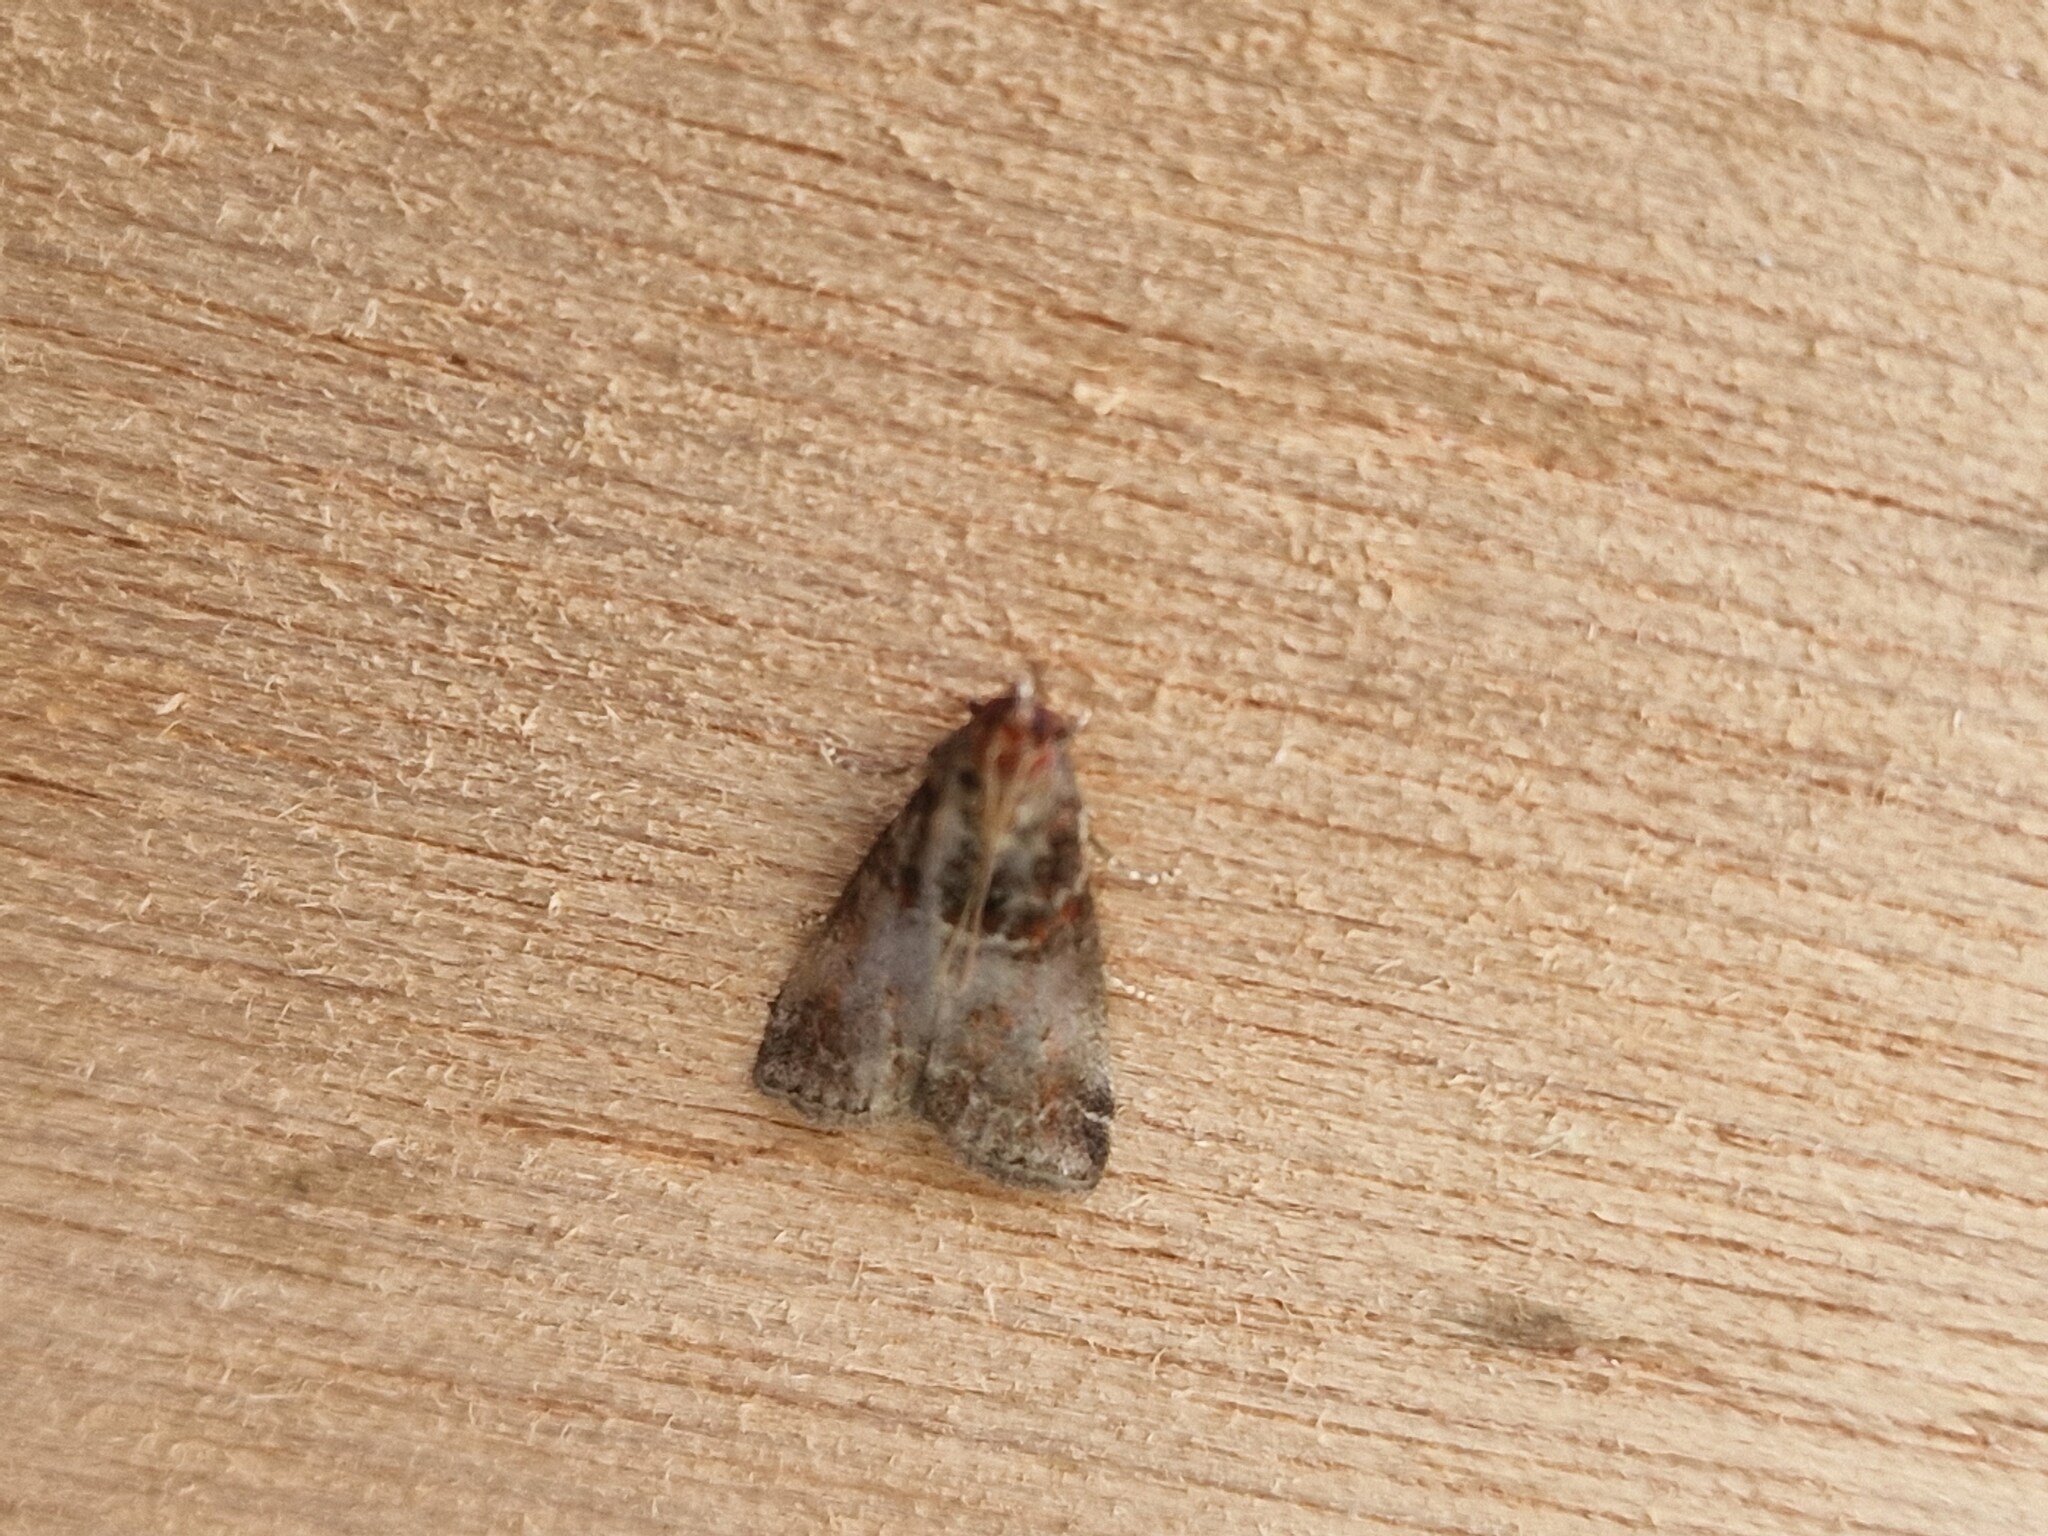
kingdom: Animalia
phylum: Arthropoda
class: Insecta
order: Lepidoptera
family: Pyralidae
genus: Acrobasis
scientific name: Acrobasis advenella
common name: Grey knot-horn
